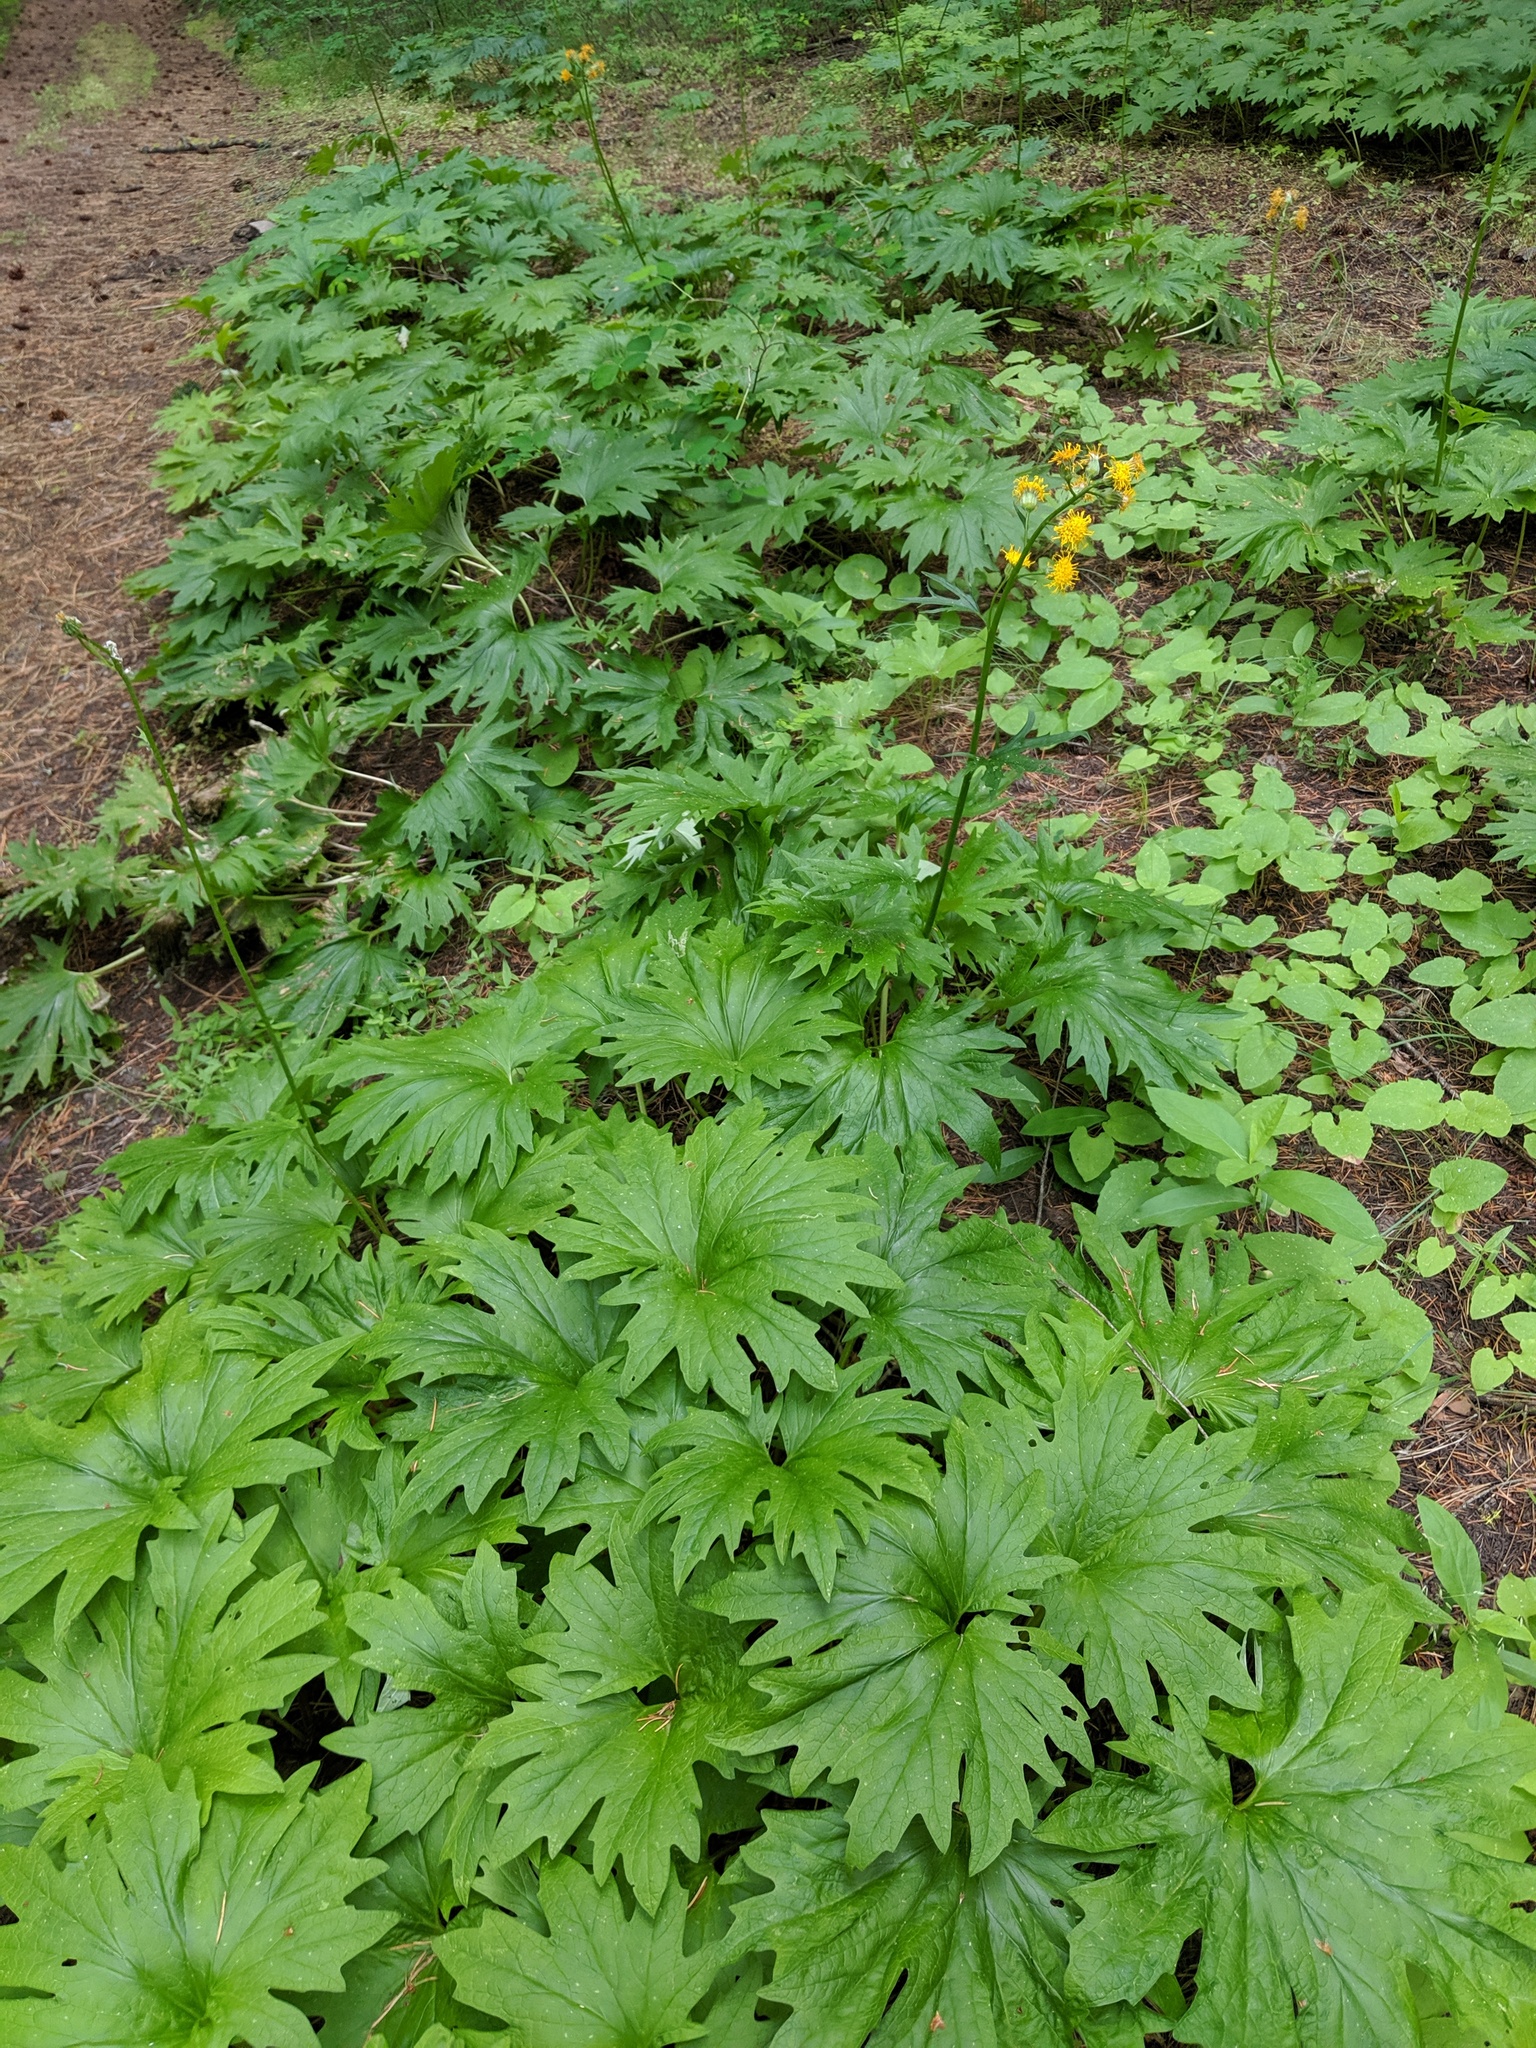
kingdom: Plantae
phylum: Tracheophyta
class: Magnoliopsida
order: Asterales
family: Asteraceae
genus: Cacaliopsis
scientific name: Cacaliopsis nardosmia
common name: Silvercrown
